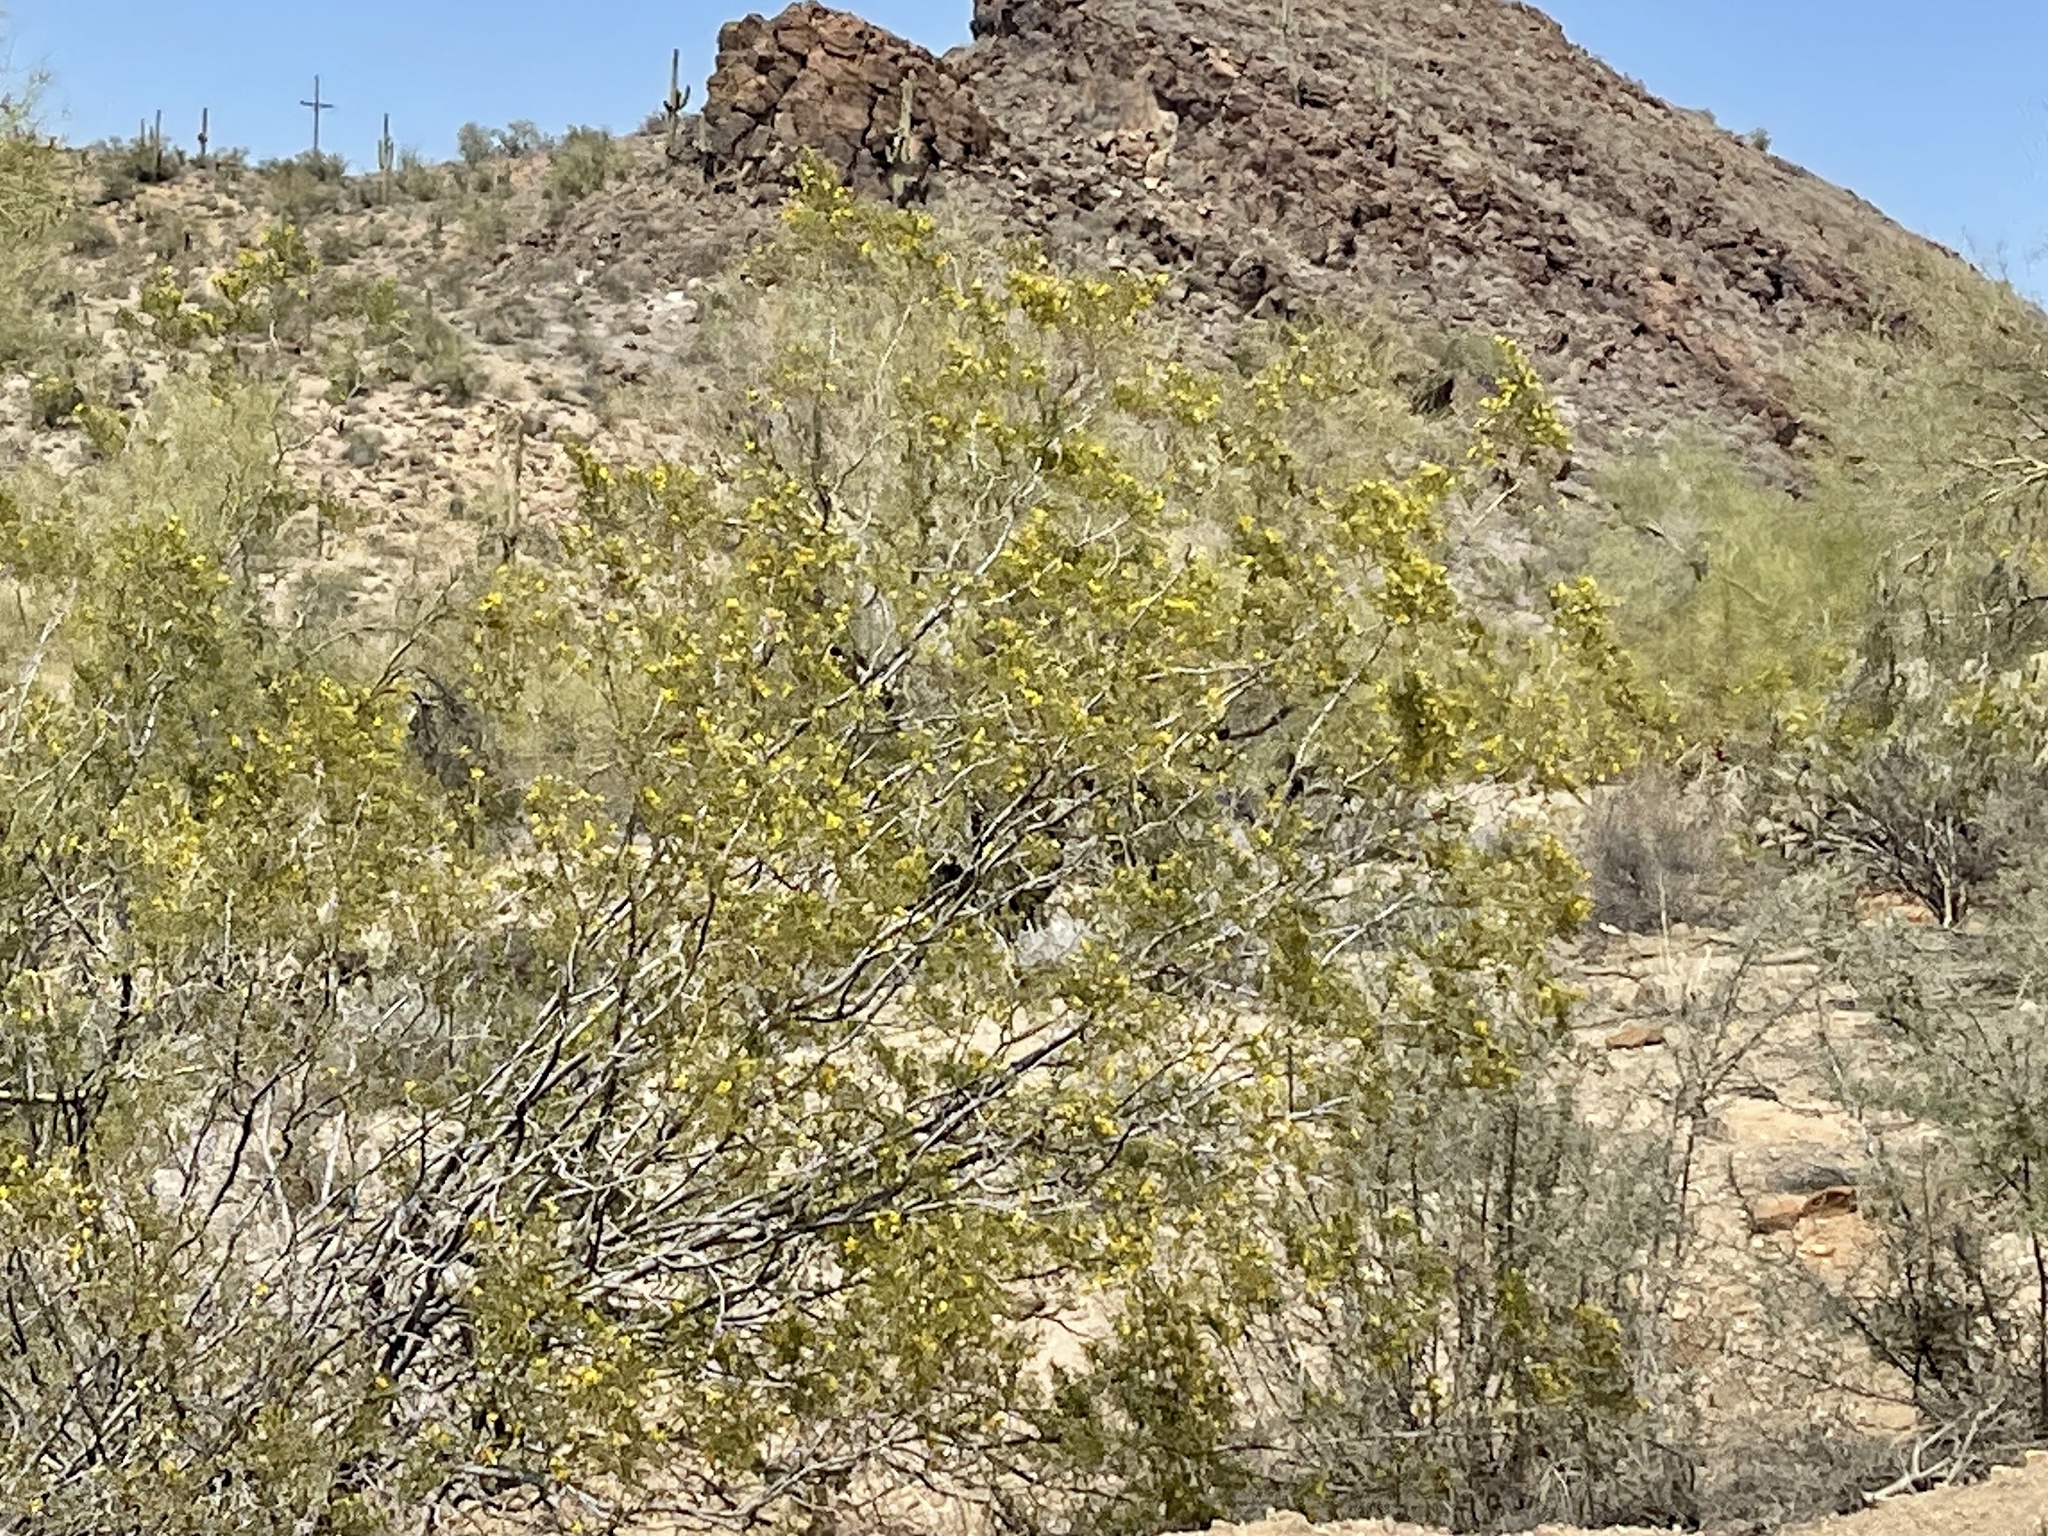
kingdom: Plantae
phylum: Tracheophyta
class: Magnoliopsida
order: Zygophyllales
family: Zygophyllaceae
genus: Larrea
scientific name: Larrea tridentata
